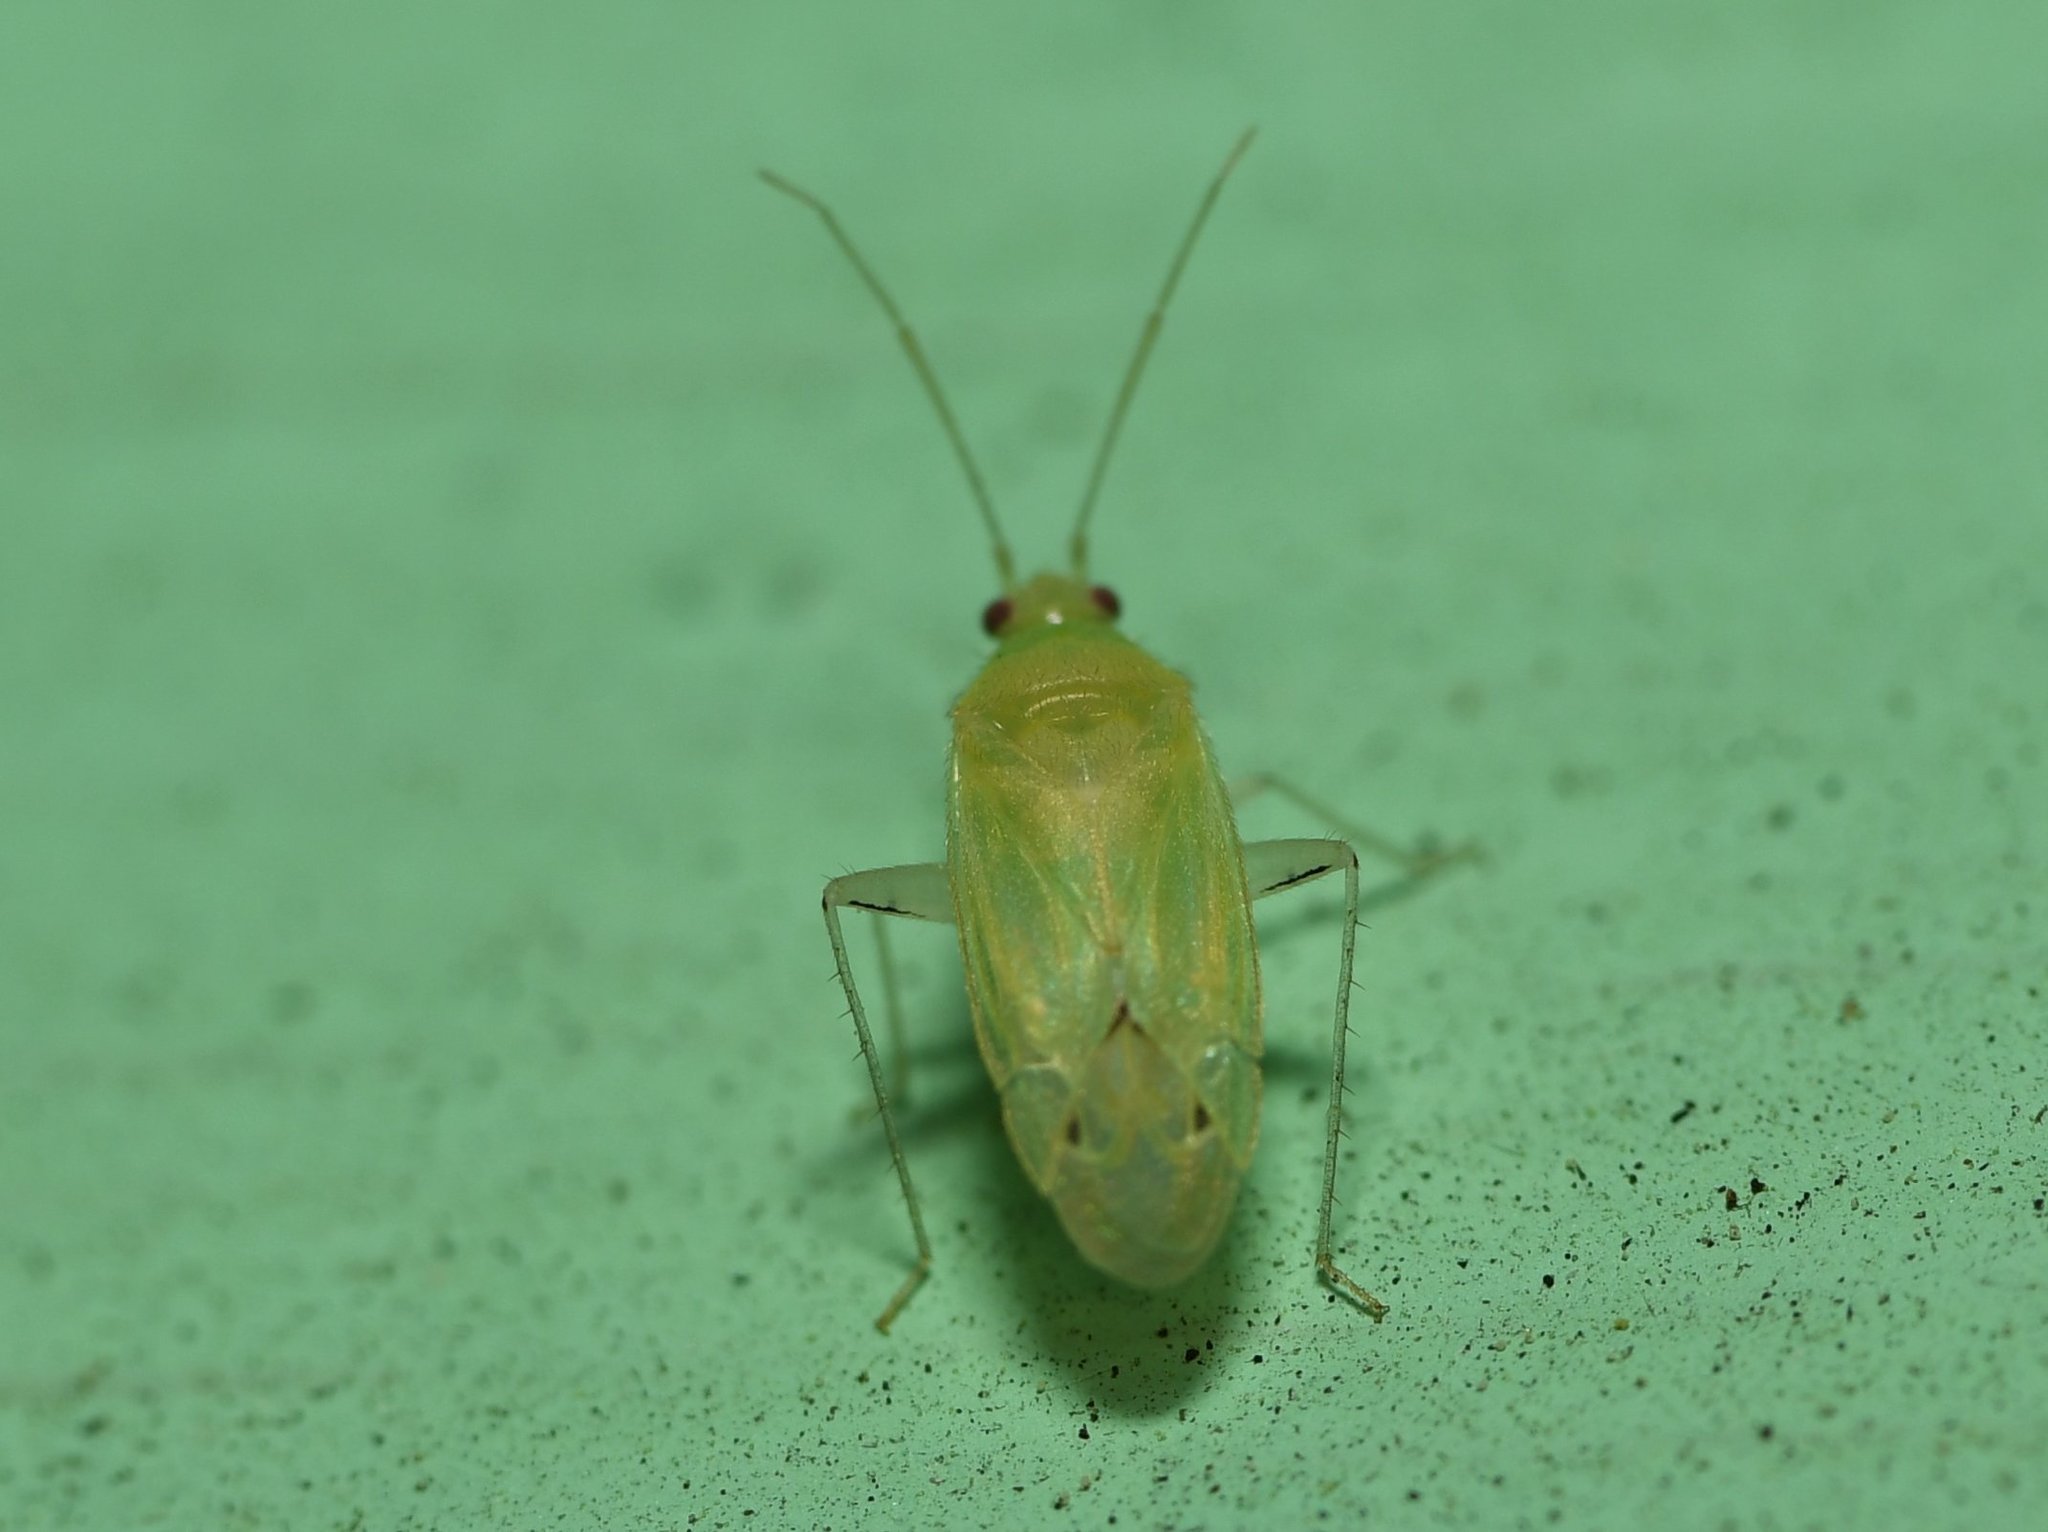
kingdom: Animalia
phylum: Arthropoda
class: Insecta
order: Hemiptera
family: Miridae
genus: Americodema
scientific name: Americodema nigrolineatum
